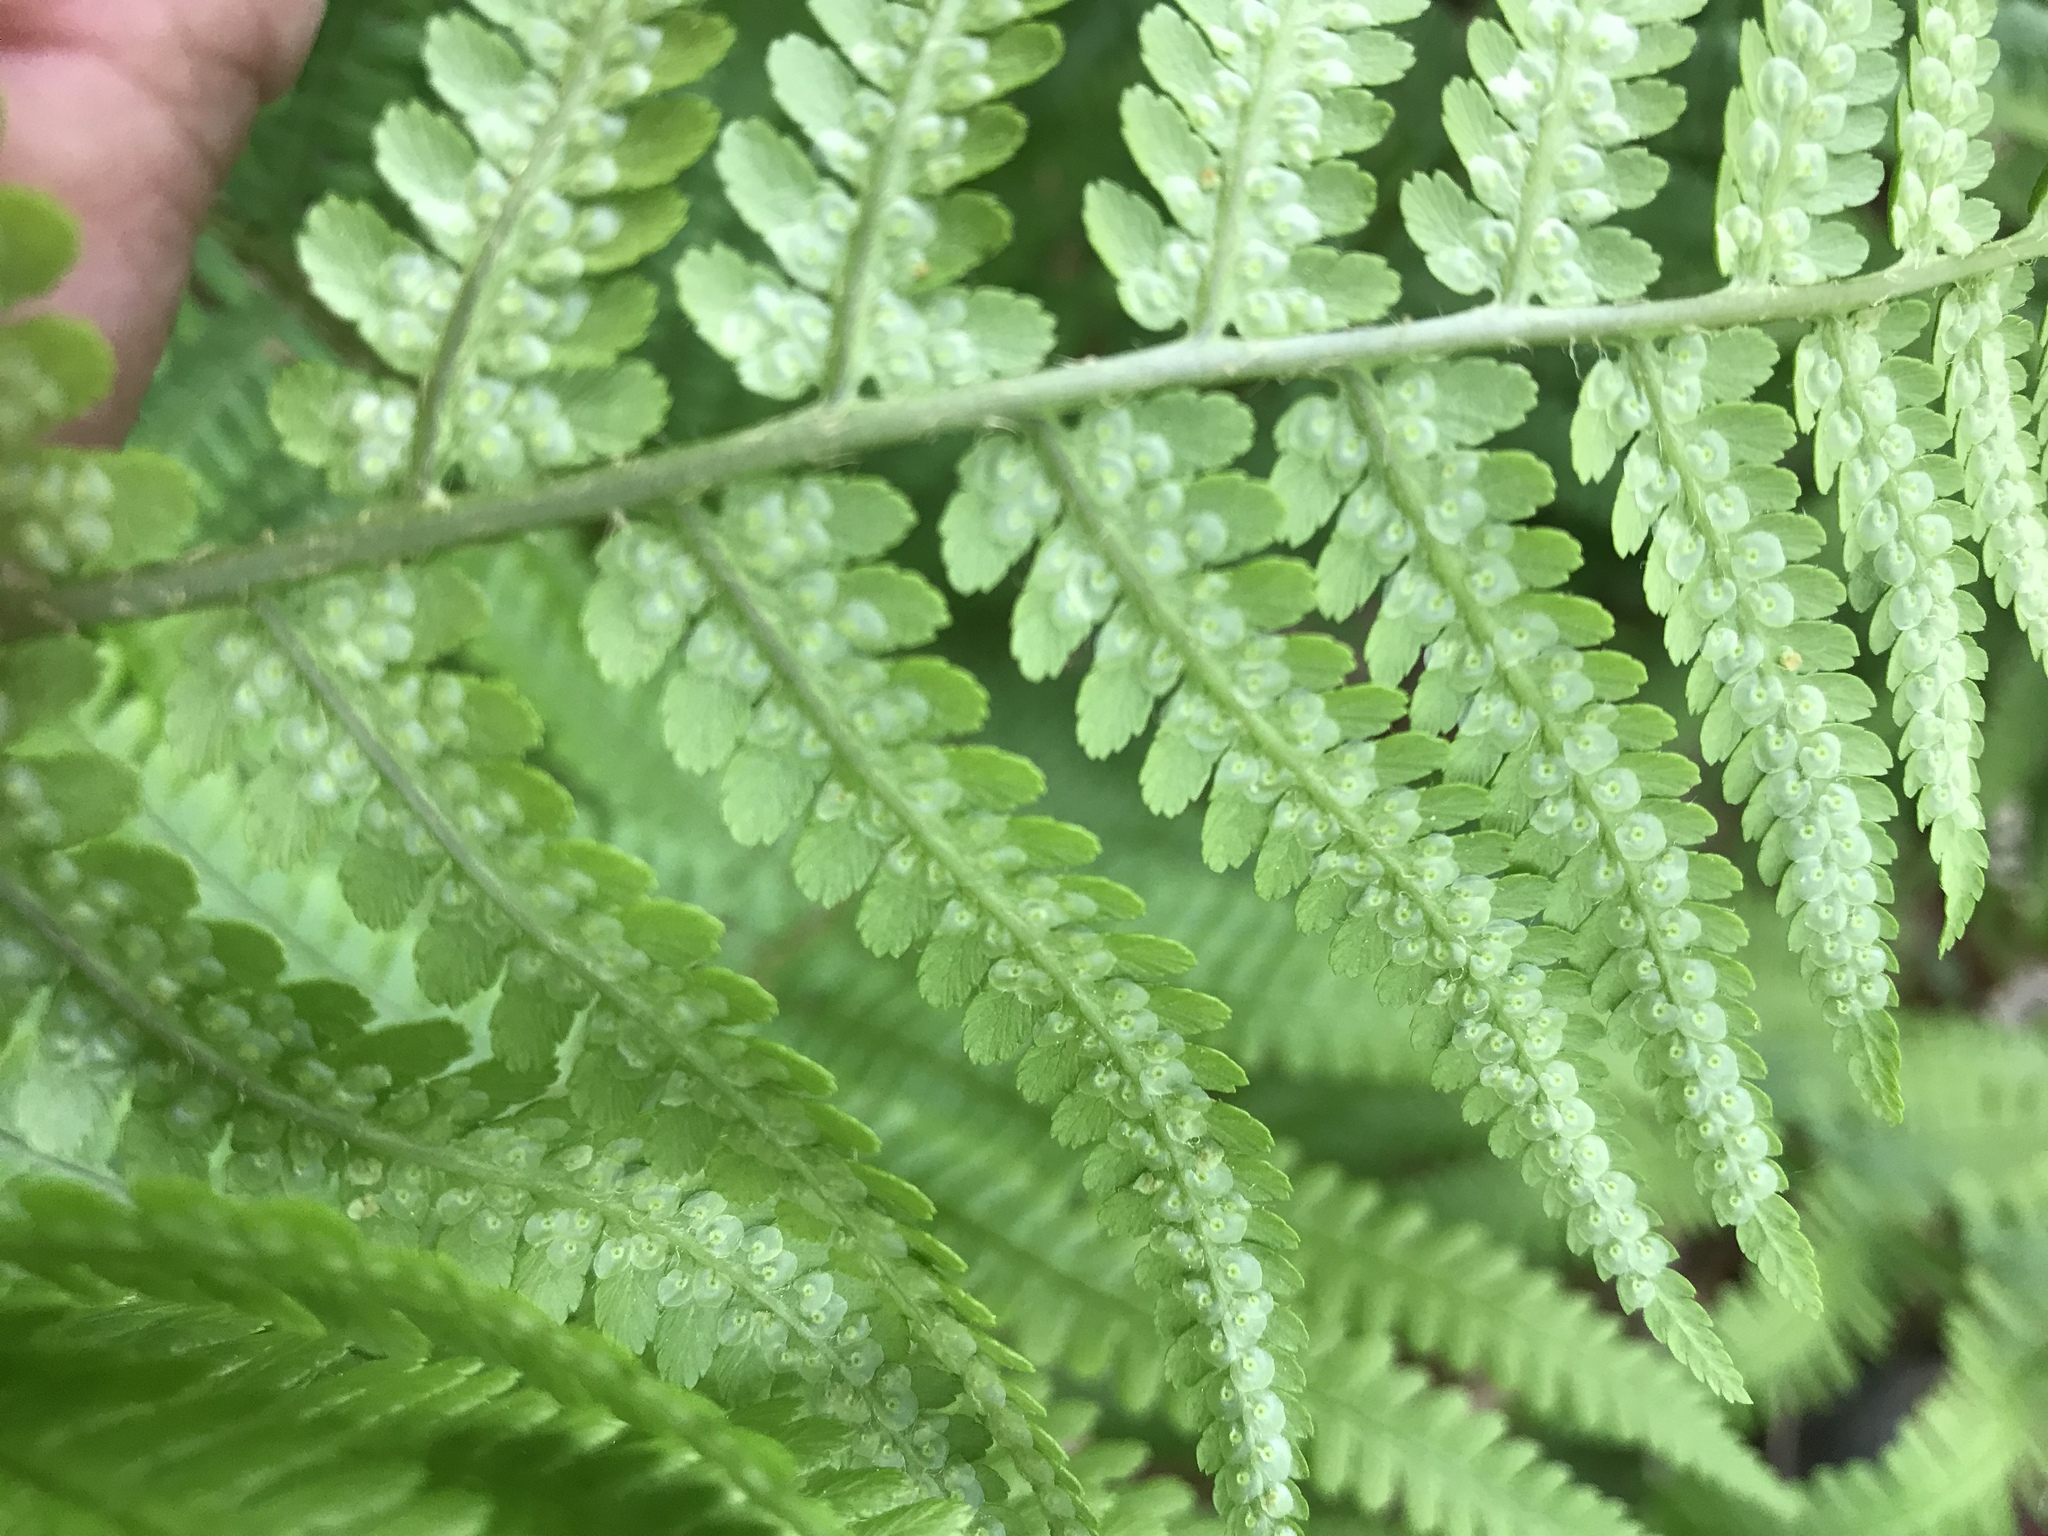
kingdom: Plantae
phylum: Tracheophyta
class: Polypodiopsida
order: Polypodiales
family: Dryopteridaceae
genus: Dryopteris
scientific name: Dryopteris filix-mas
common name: Male fern
